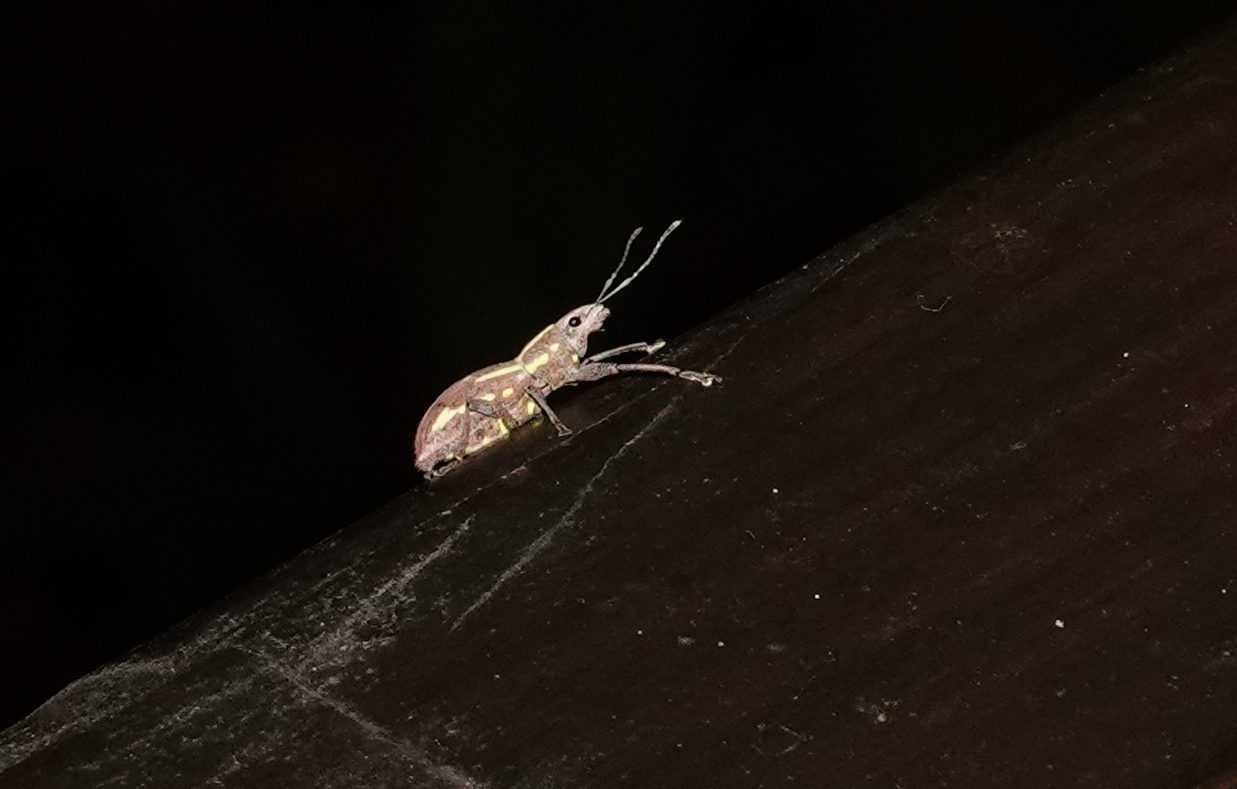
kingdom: Animalia
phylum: Arthropoda
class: Insecta
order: Coleoptera
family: Curculionidae
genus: Naupactus
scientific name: Naupactus dissimilis
